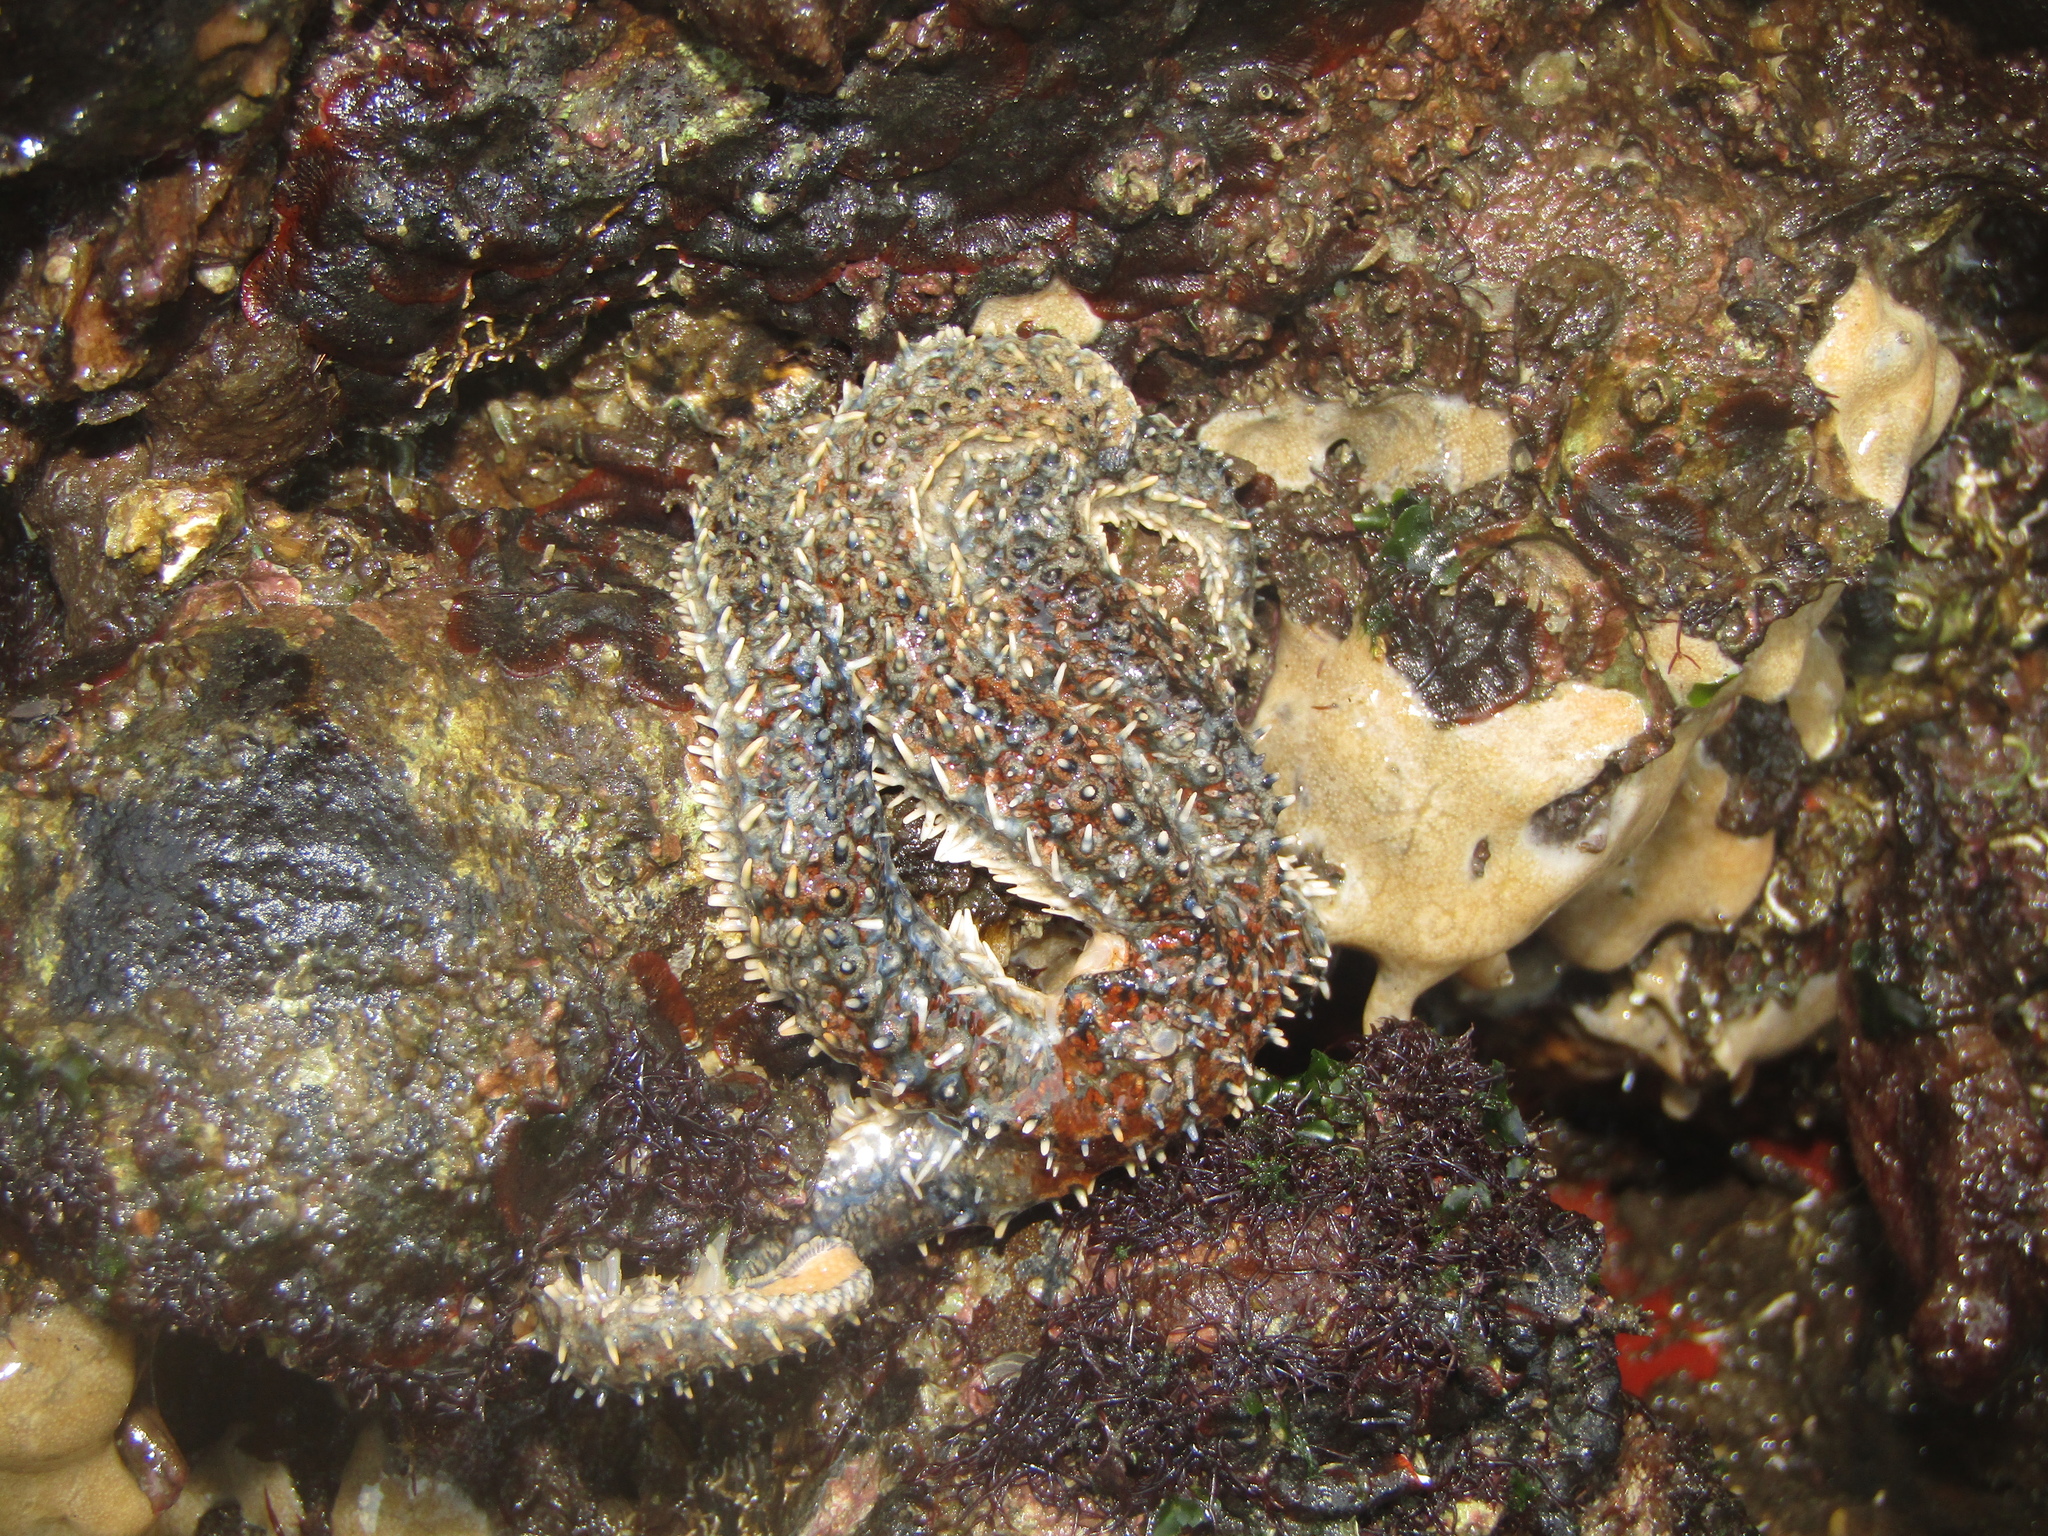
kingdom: Animalia
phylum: Echinodermata
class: Asteroidea
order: Forcipulatida
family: Asteriidae
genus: Coscinasterias
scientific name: Coscinasterias muricata
